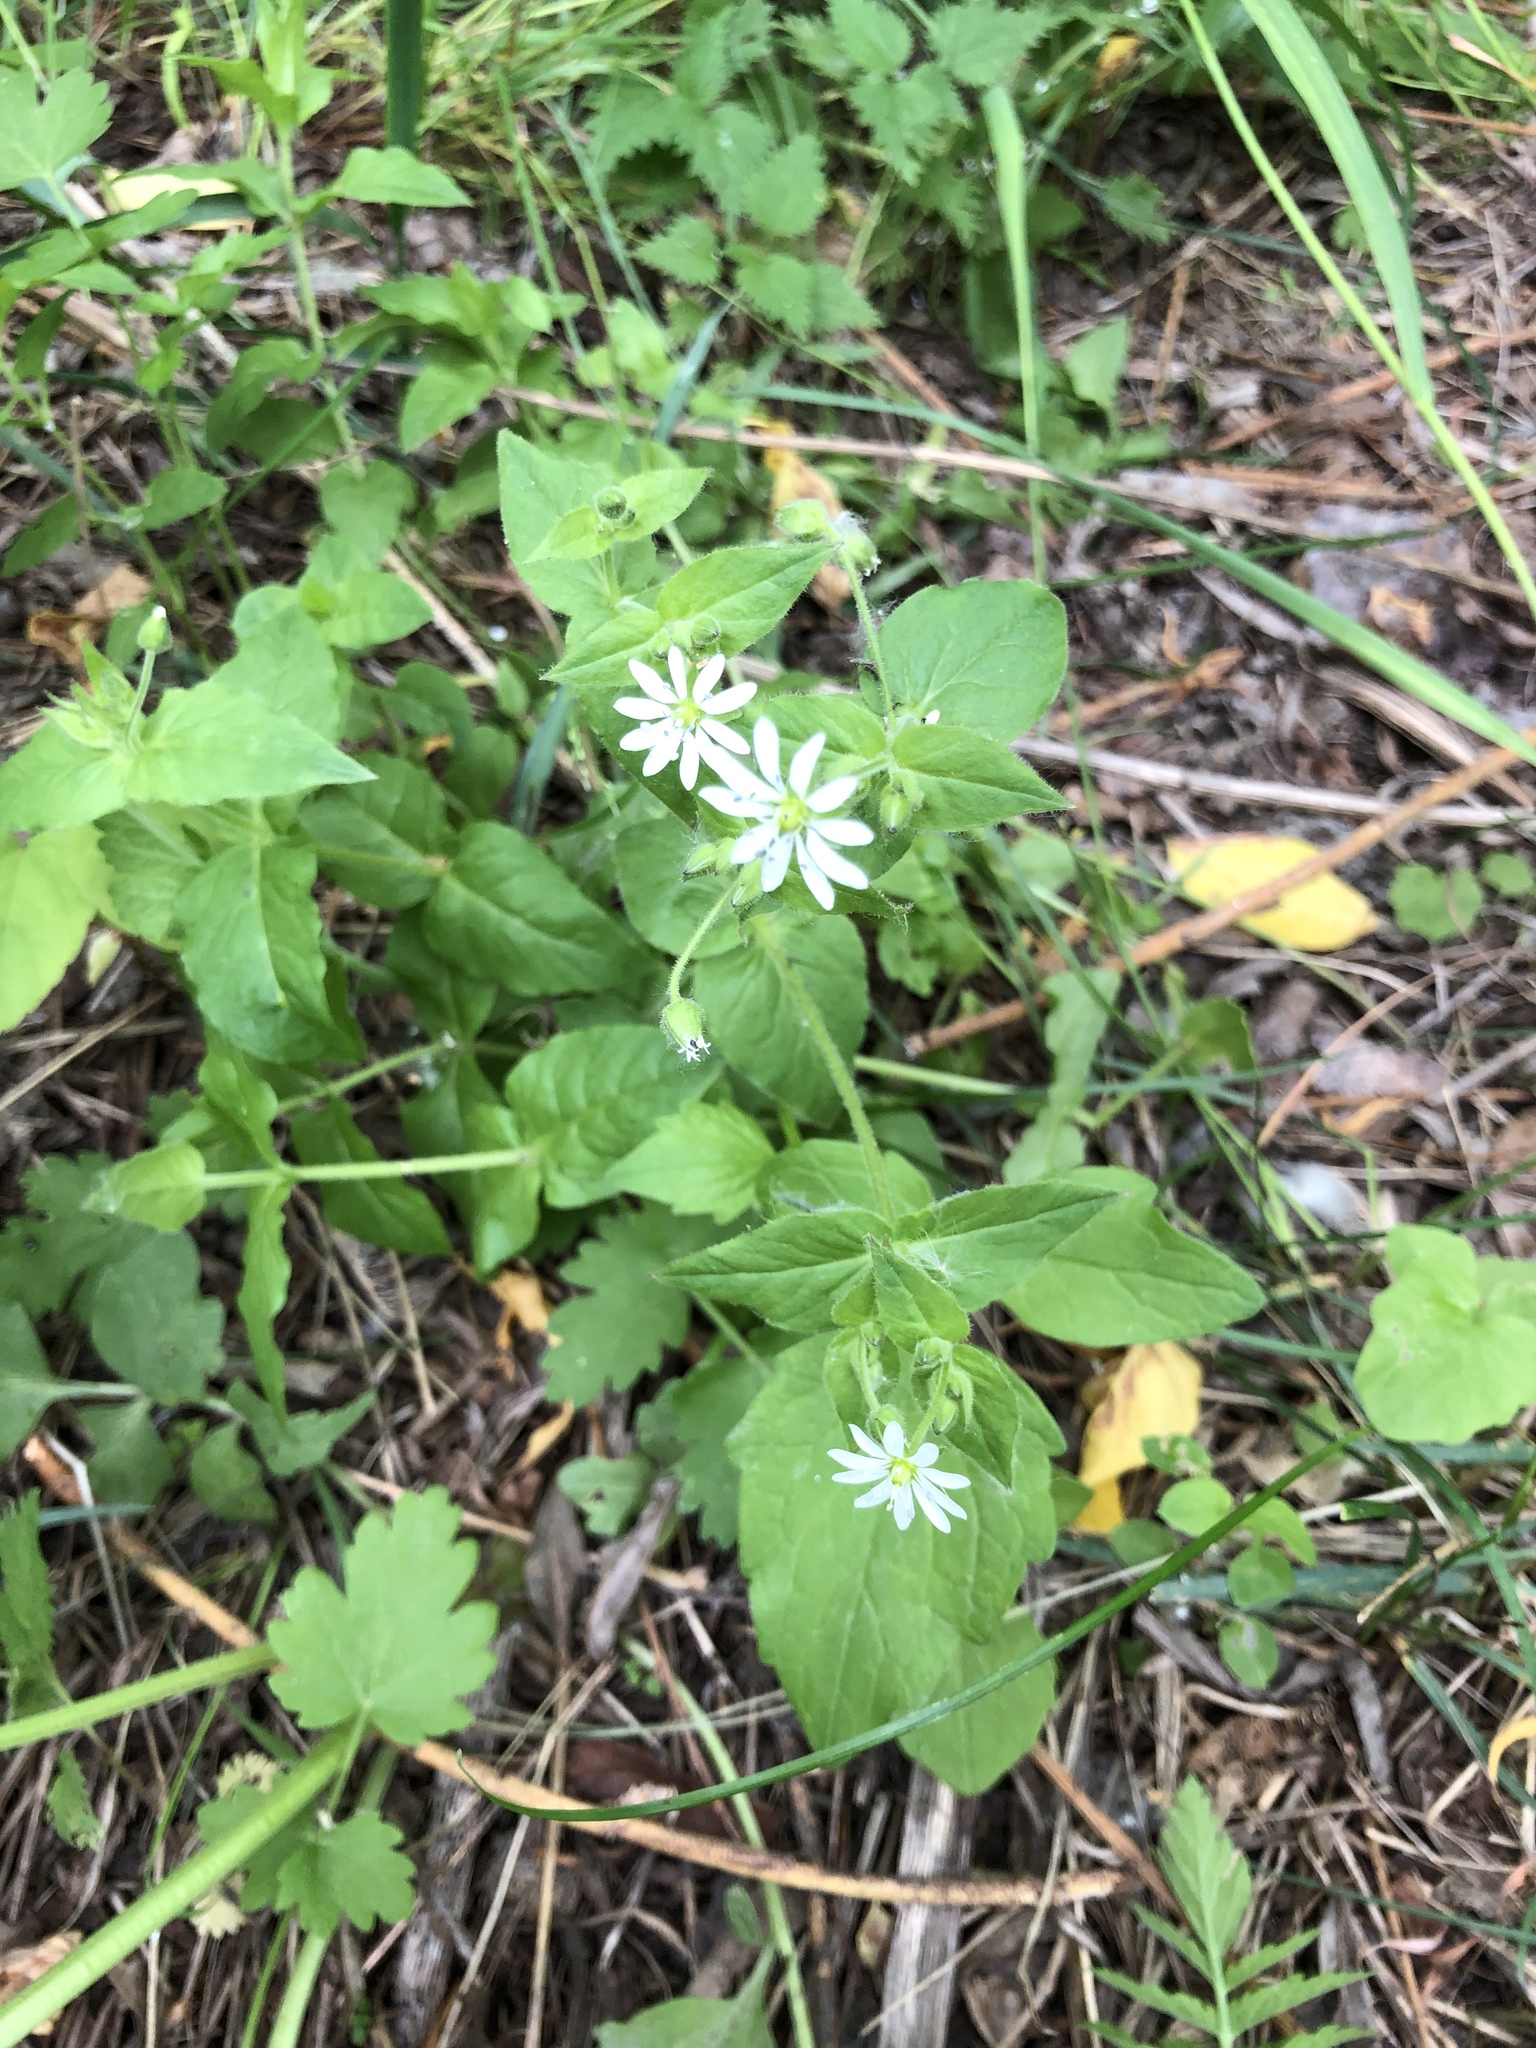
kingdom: Plantae
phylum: Tracheophyta
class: Magnoliopsida
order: Caryophyllales
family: Caryophyllaceae
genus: Stellaria
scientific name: Stellaria aquatica
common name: Water chickweed
